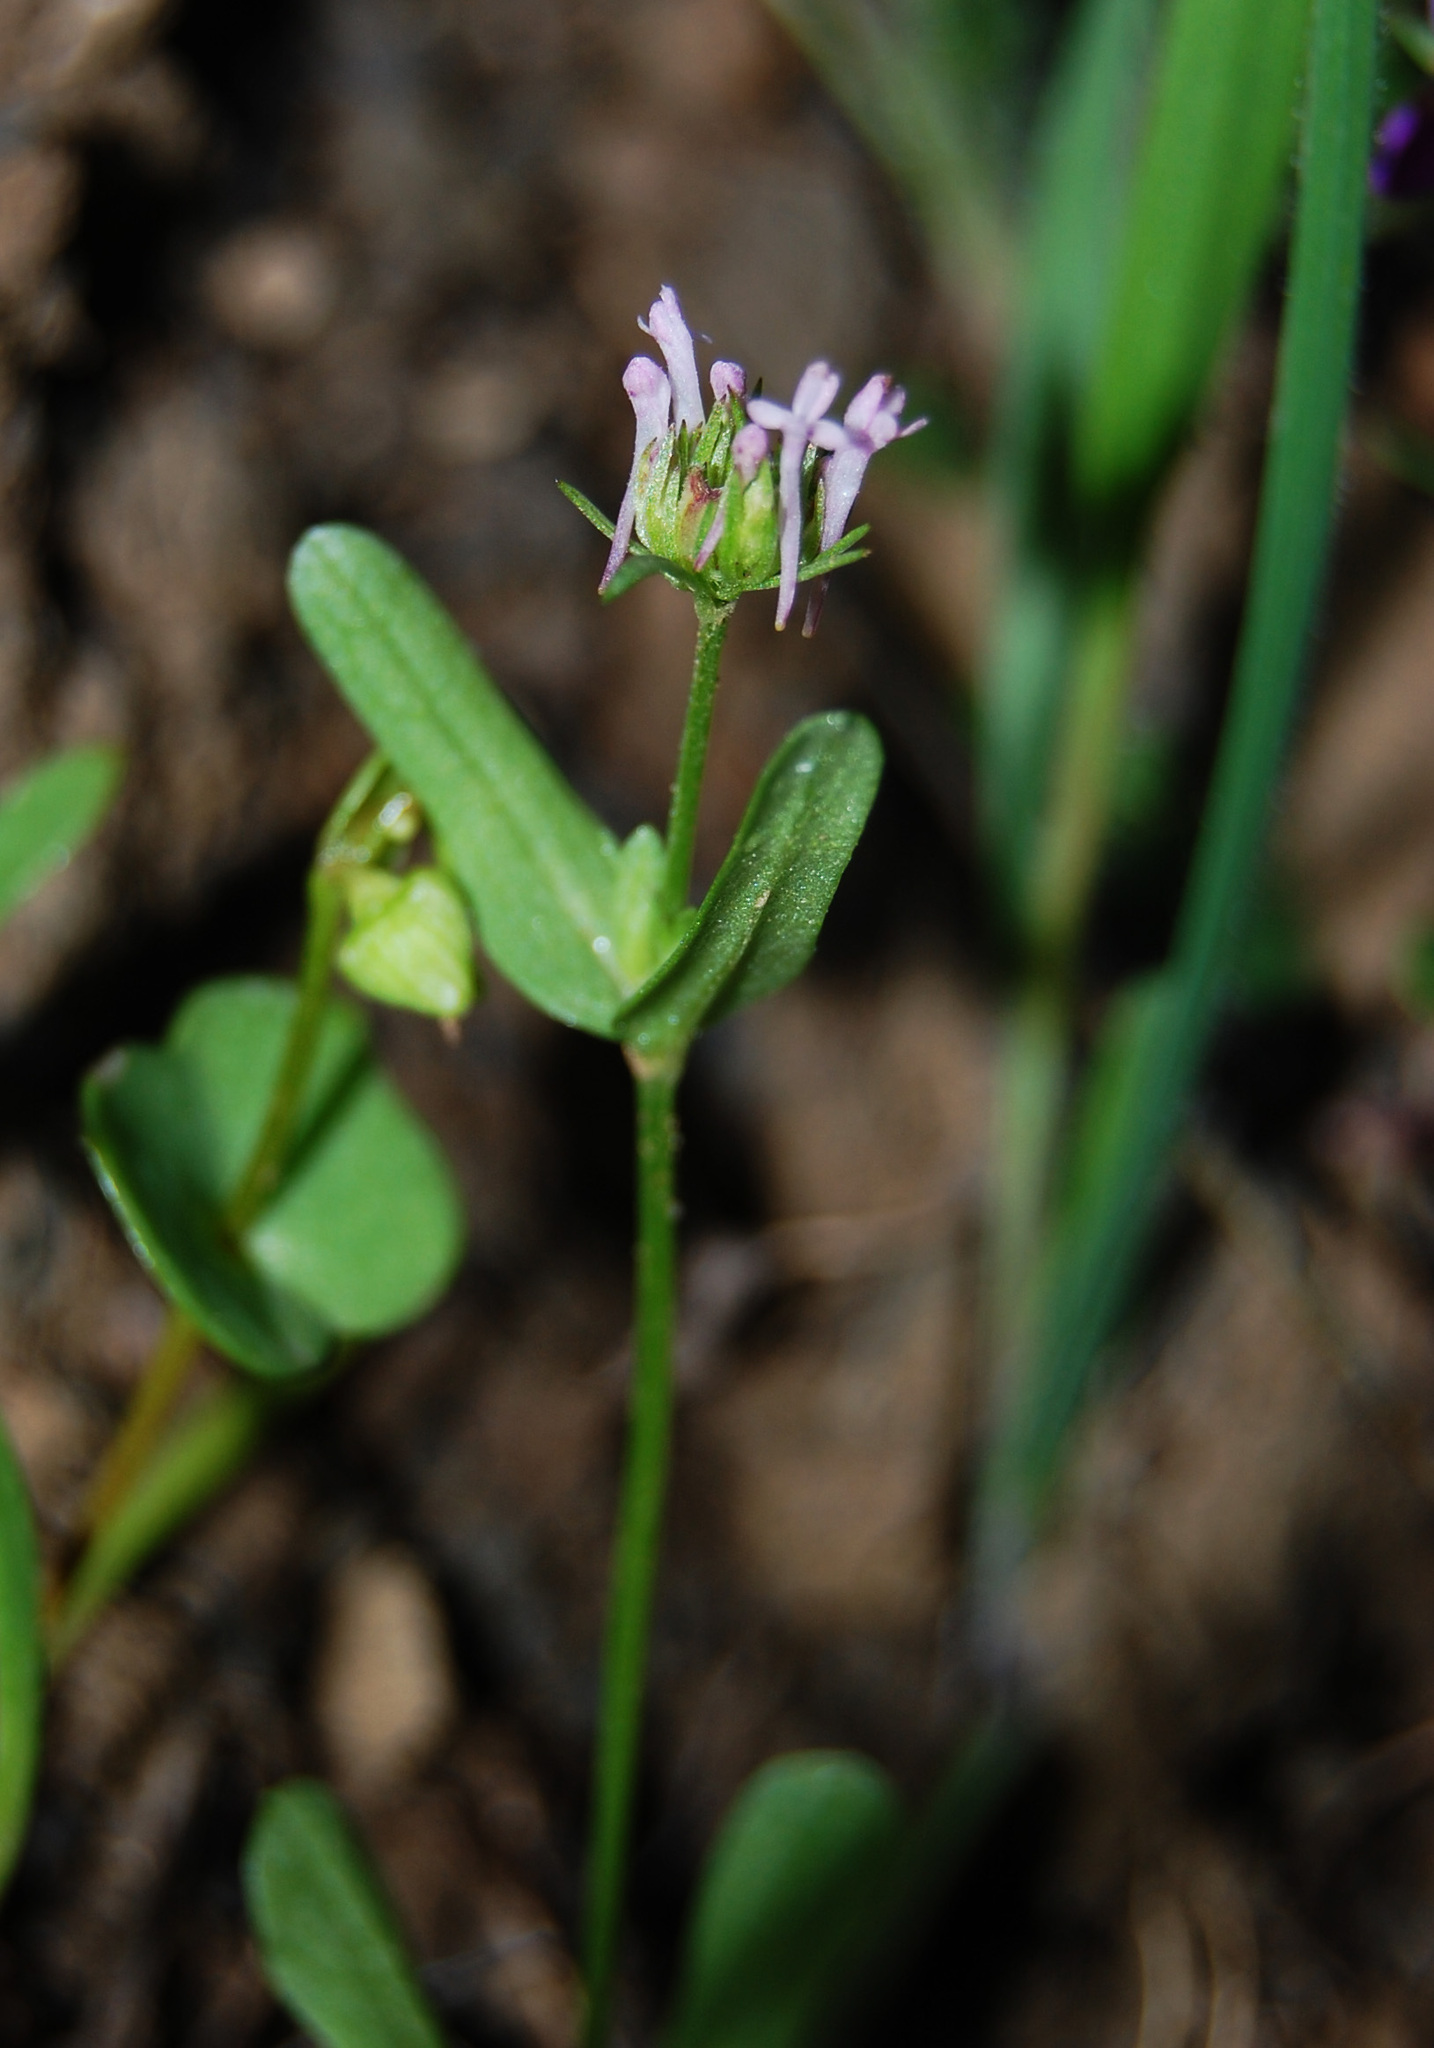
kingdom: Plantae
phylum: Tracheophyta
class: Magnoliopsida
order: Dipsacales
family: Caprifoliaceae
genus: Plectritis
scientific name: Plectritis ciliosa
